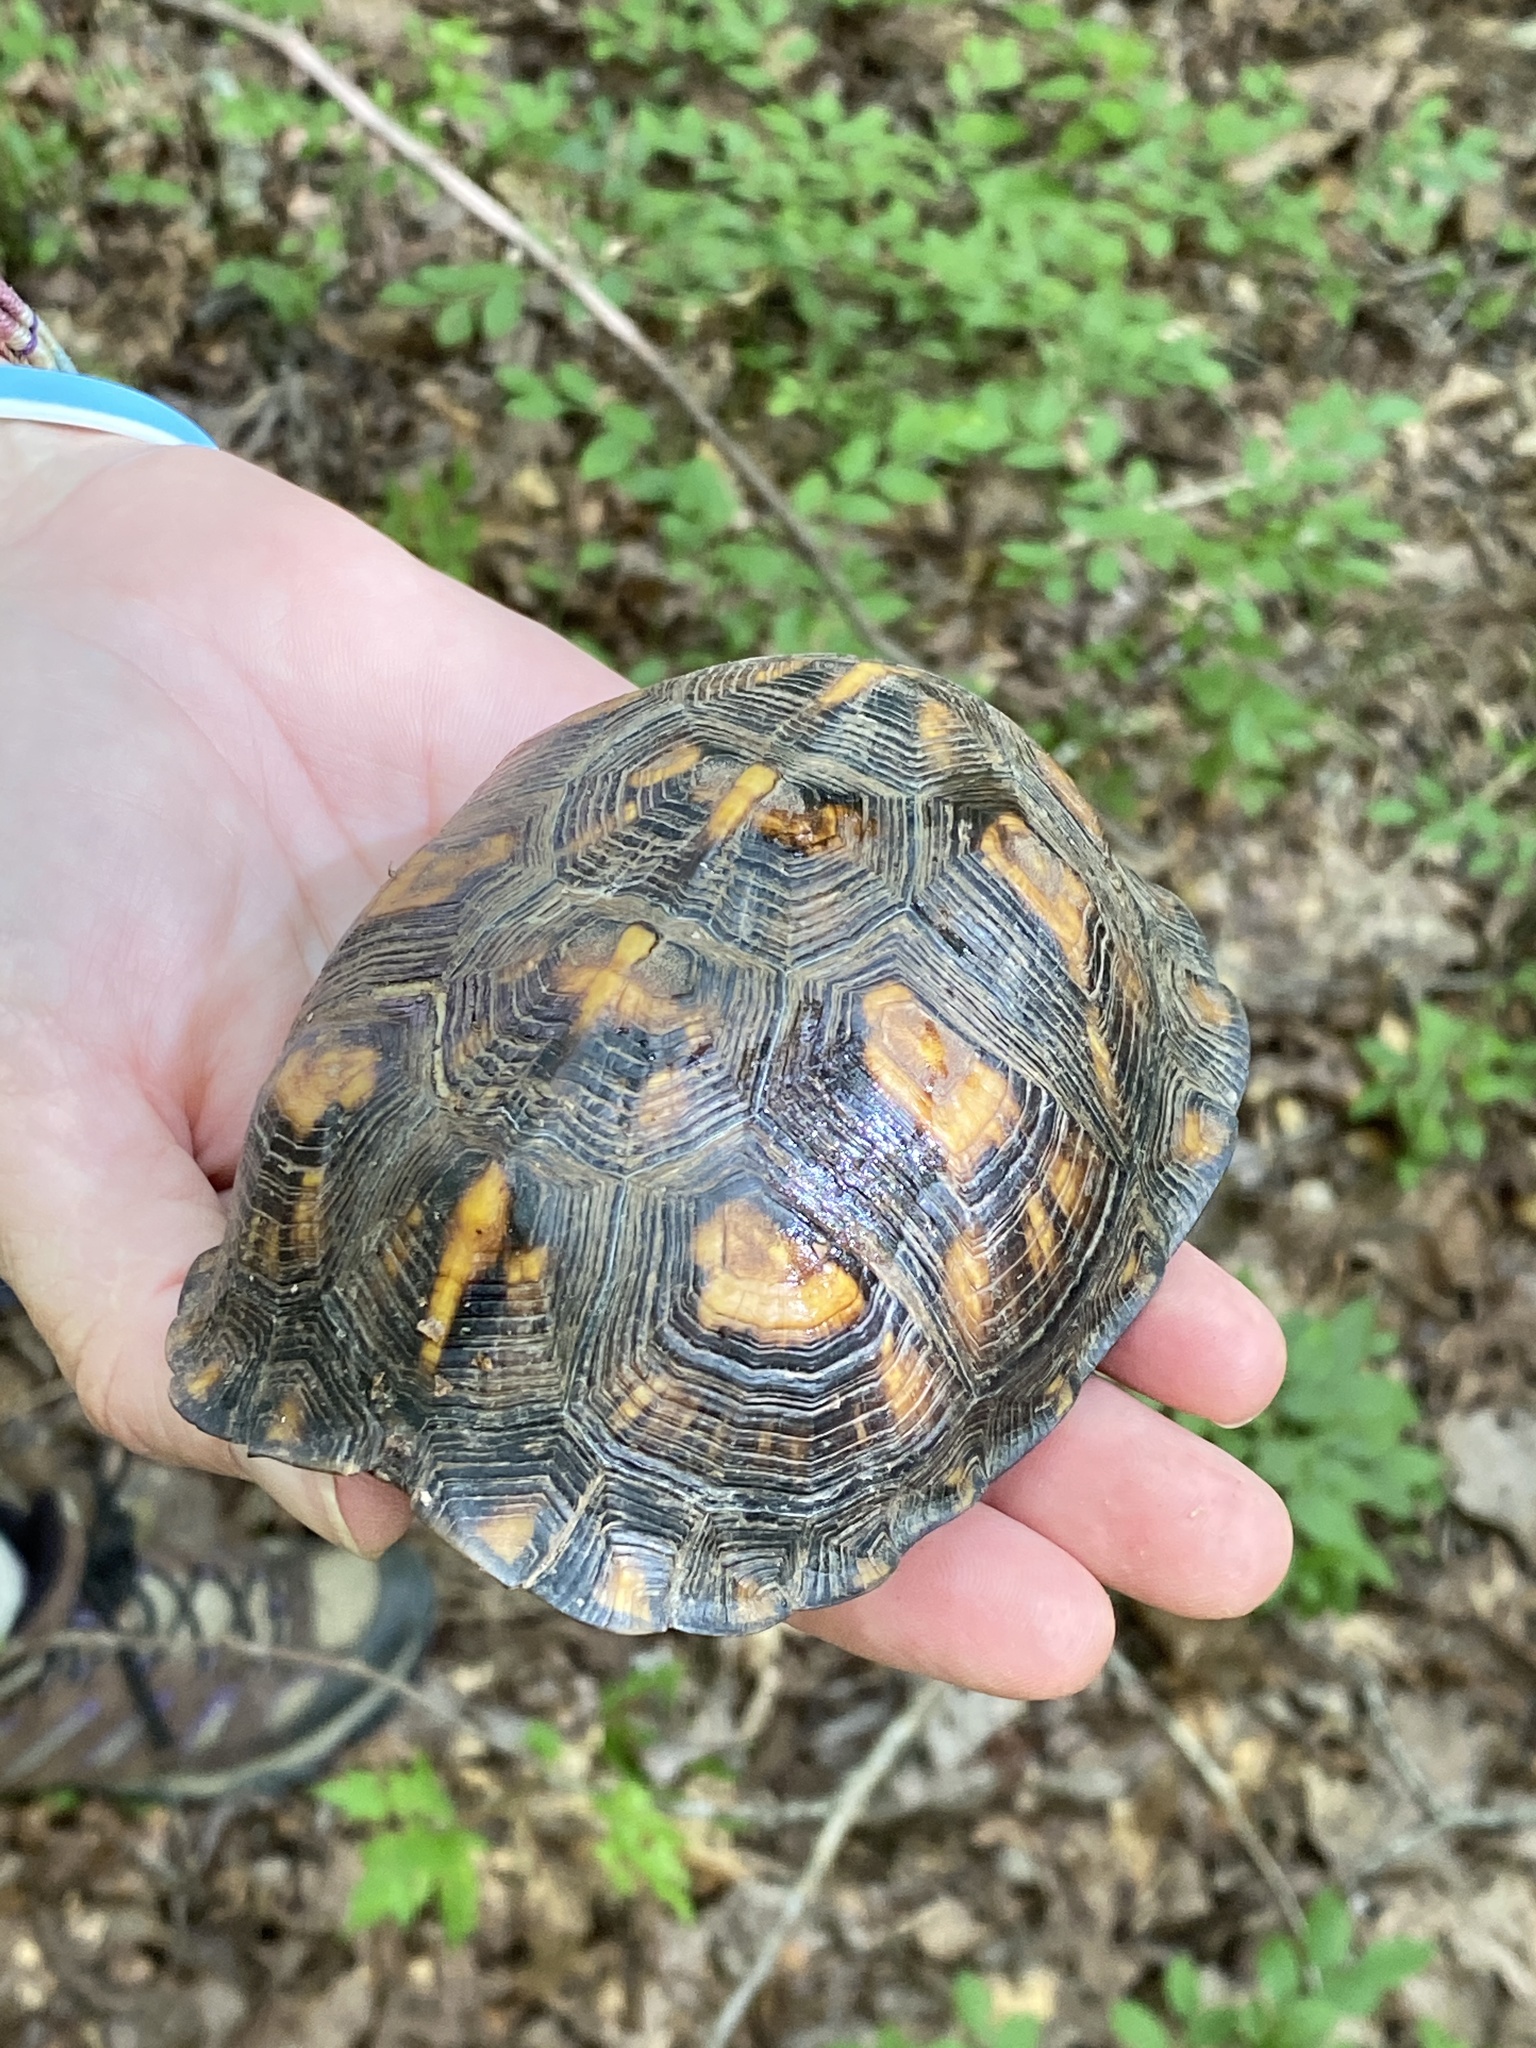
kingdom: Animalia
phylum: Chordata
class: Testudines
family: Emydidae
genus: Terrapene
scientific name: Terrapene carolina
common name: Common box turtle
